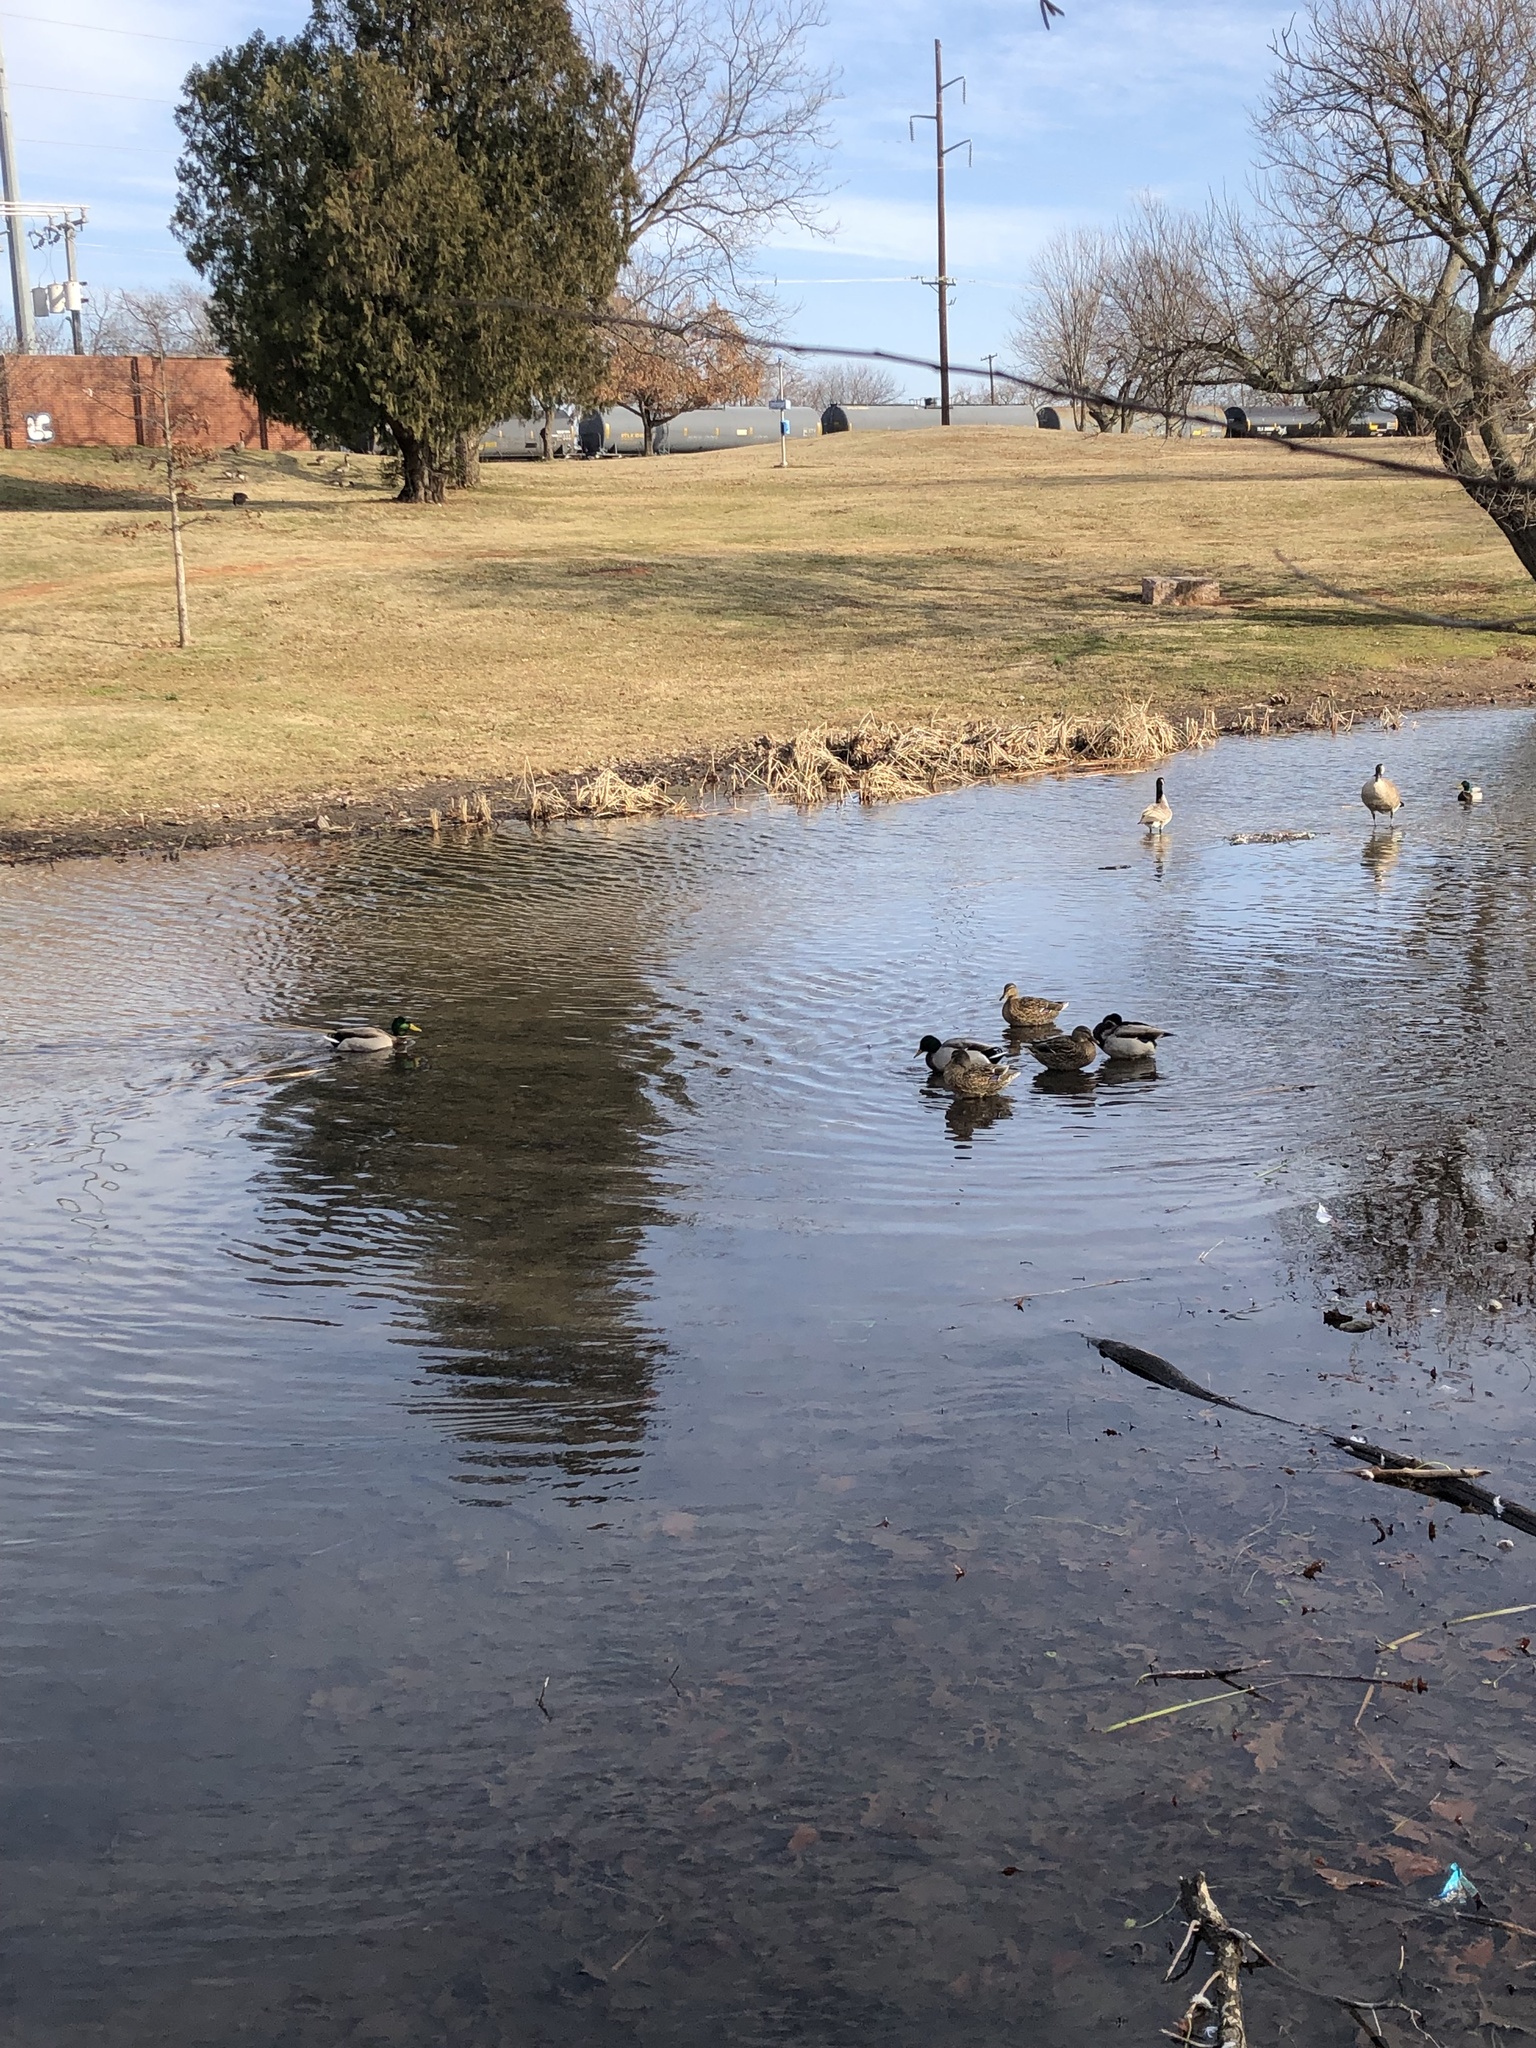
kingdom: Animalia
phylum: Chordata
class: Aves
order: Anseriformes
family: Anatidae
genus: Anas
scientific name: Anas platyrhynchos
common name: Mallard
